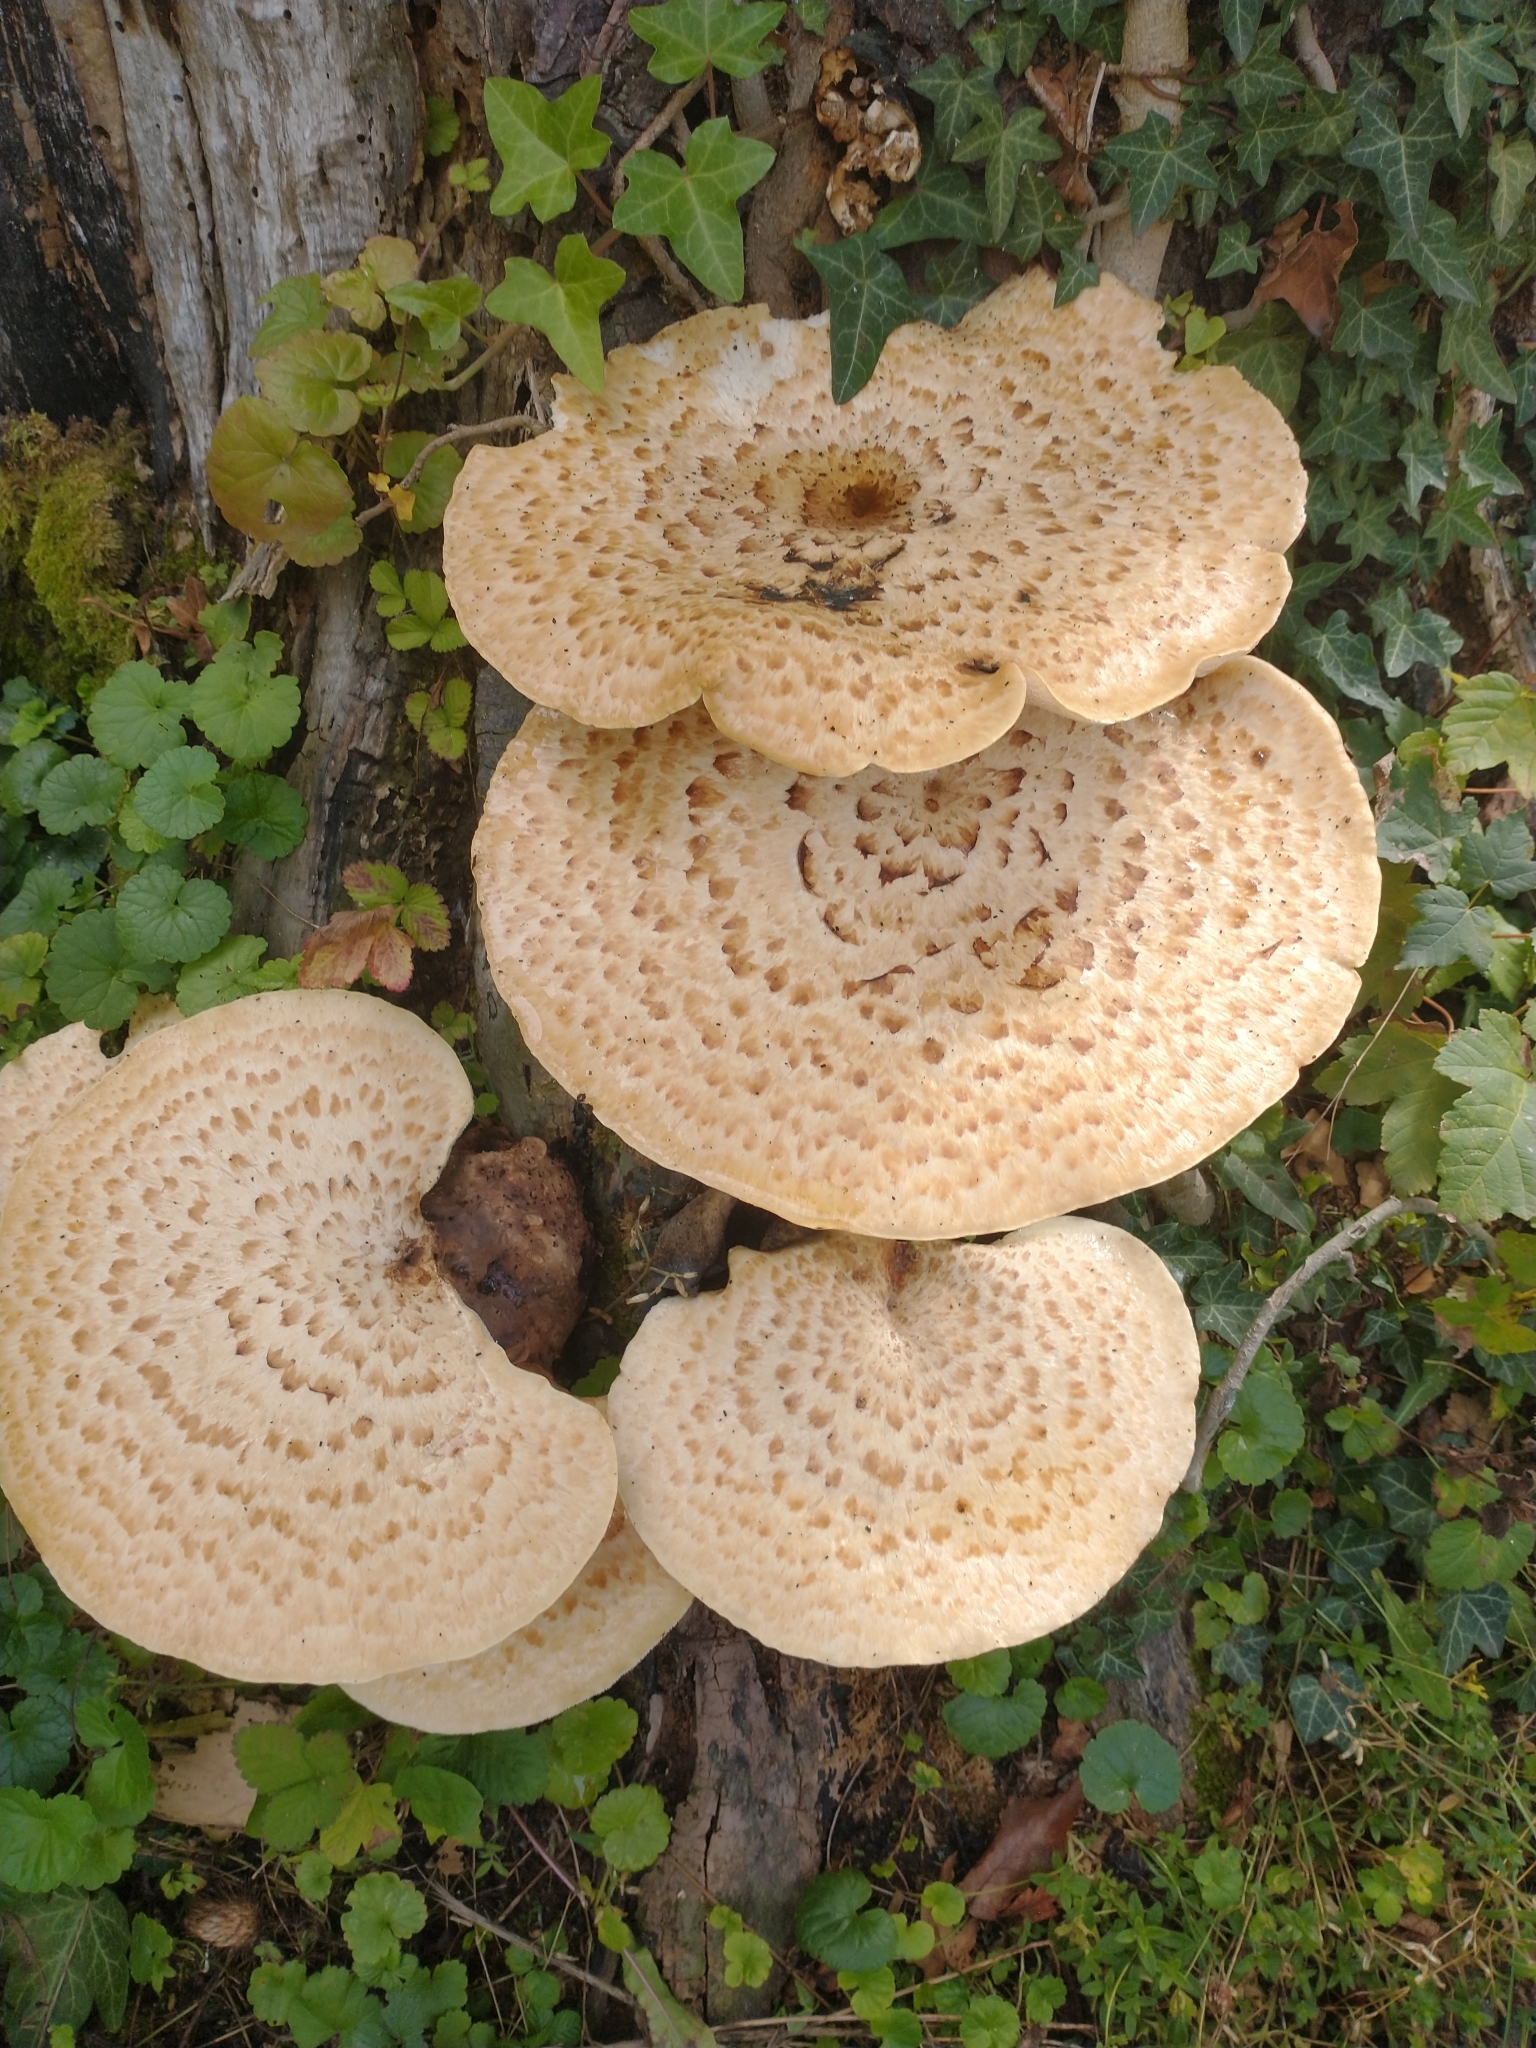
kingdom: Fungi
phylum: Basidiomycota
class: Agaricomycetes
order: Polyporales
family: Polyporaceae
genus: Cerioporus
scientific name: Cerioporus squamosus
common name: Dryad's saddle
